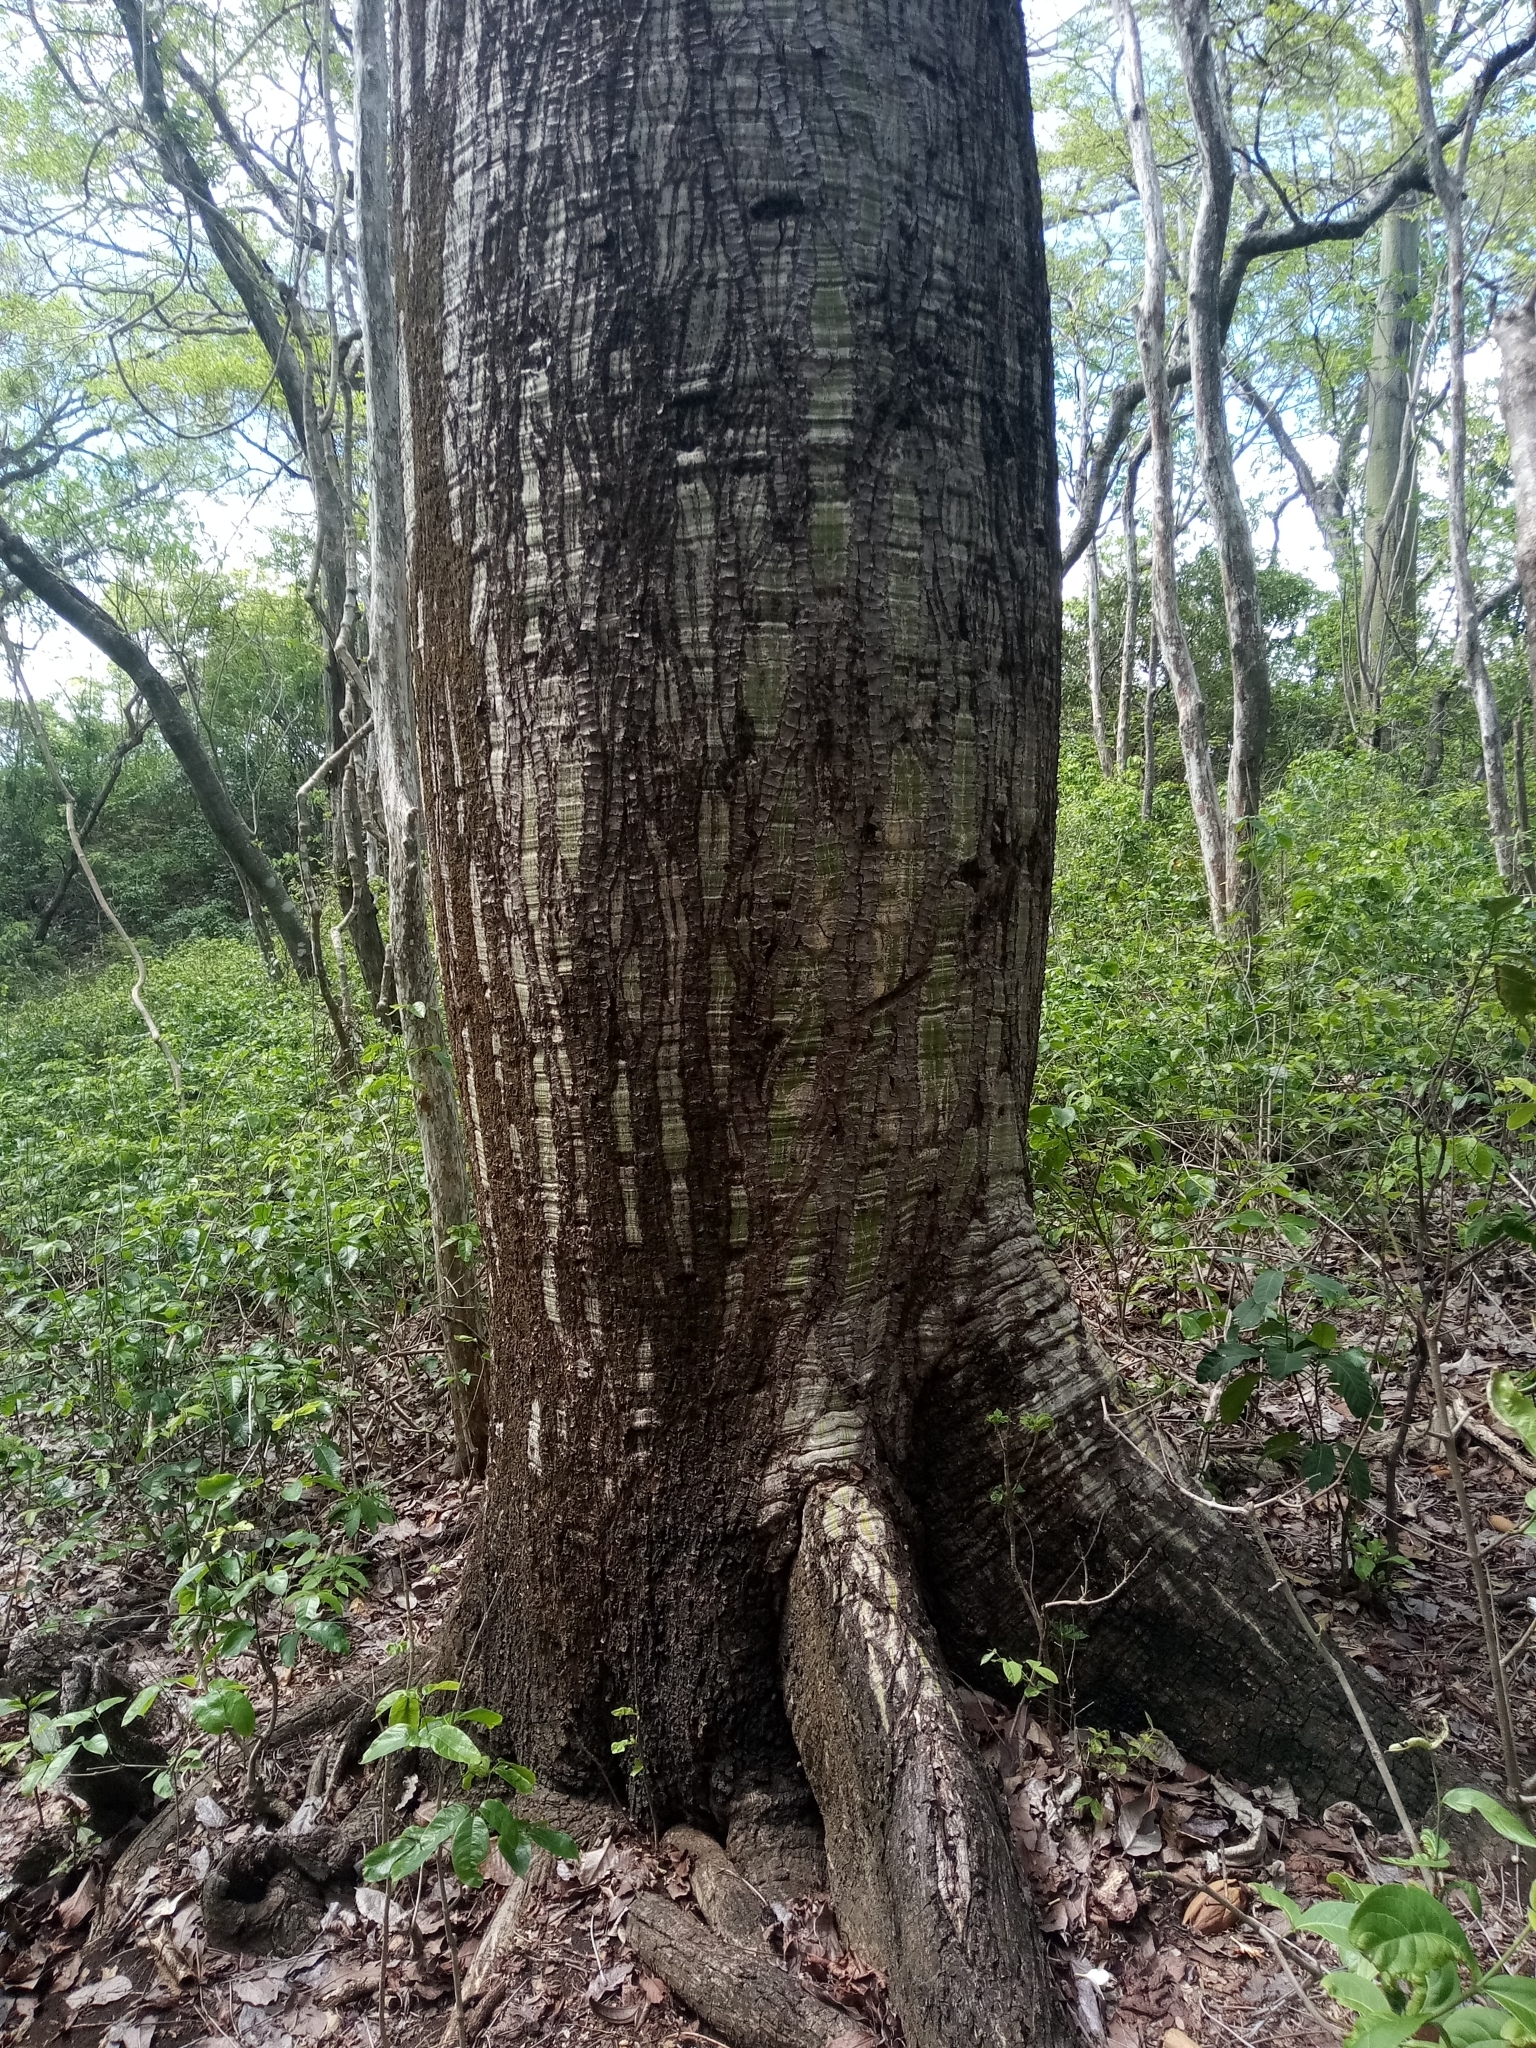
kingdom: Plantae
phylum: Tracheophyta
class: Magnoliopsida
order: Malvales
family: Malvaceae
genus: Pseudobombax
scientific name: Pseudobombax septenatum
